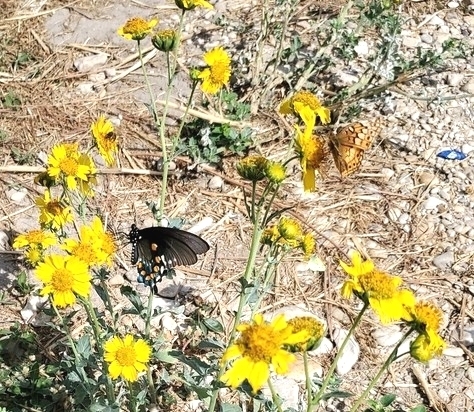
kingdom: Animalia
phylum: Arthropoda
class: Insecta
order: Lepidoptera
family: Papilionidae
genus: Battus
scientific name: Battus philenor
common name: Pipevine swallowtail
